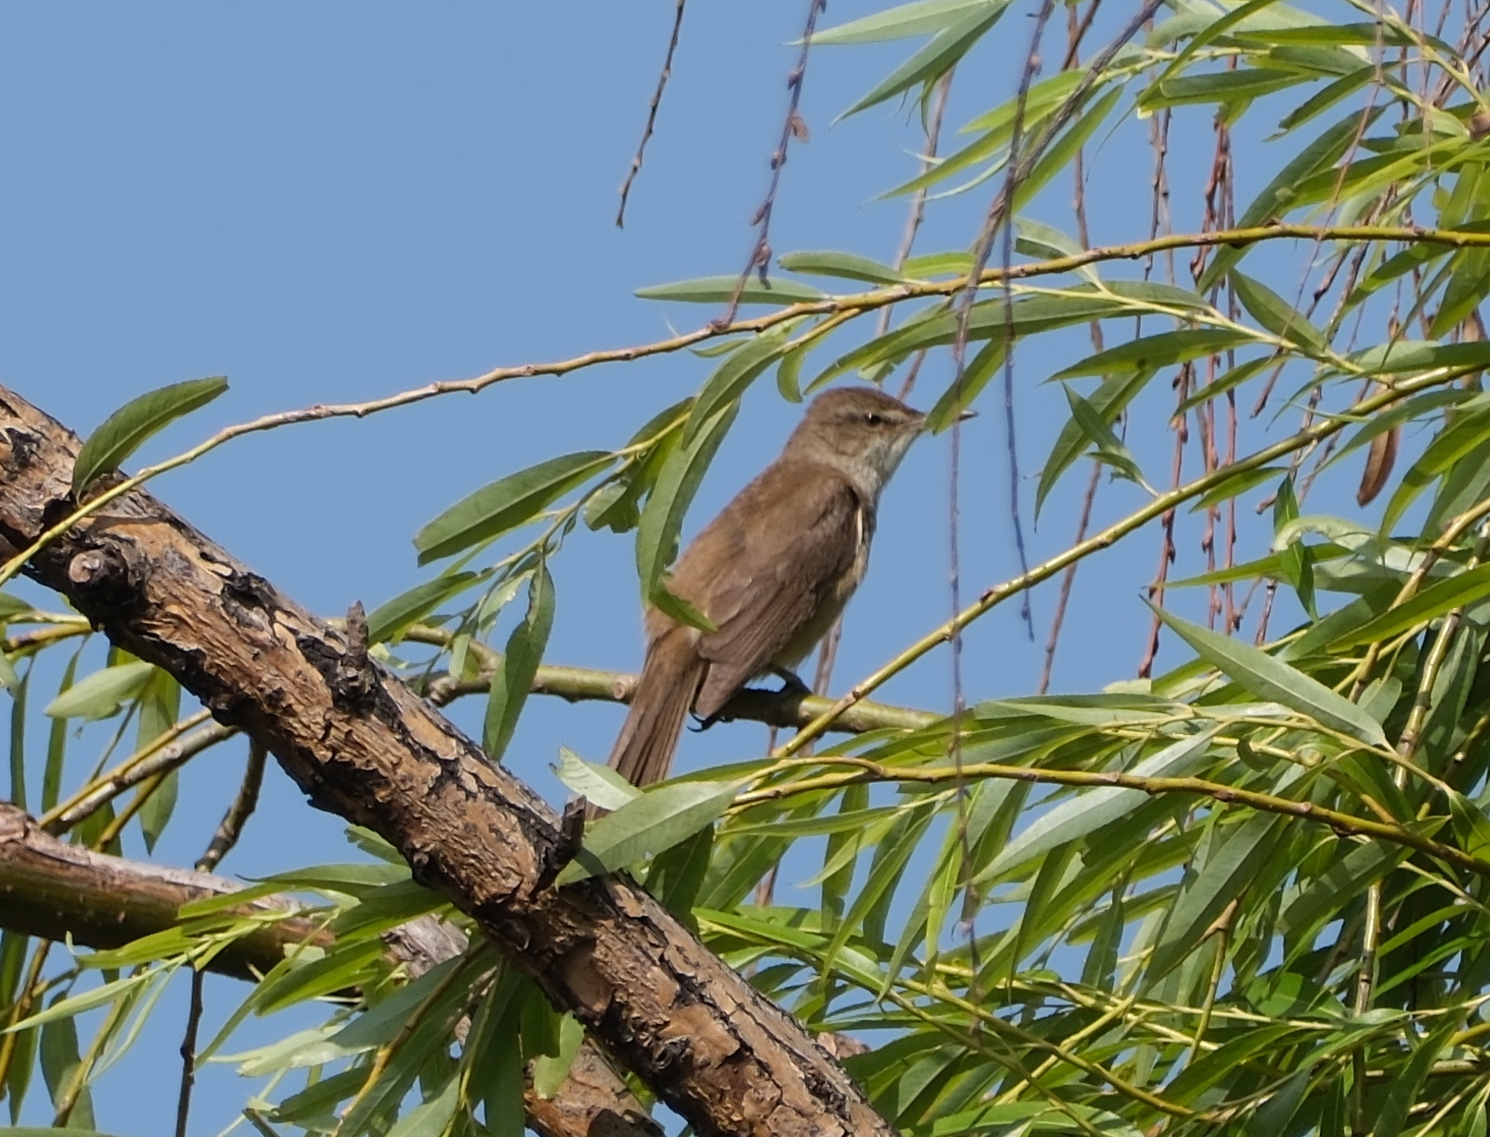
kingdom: Animalia
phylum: Chordata
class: Aves
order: Passeriformes
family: Acrocephalidae
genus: Acrocephalus
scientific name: Acrocephalus stentoreus
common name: Clamorous reed warbler
